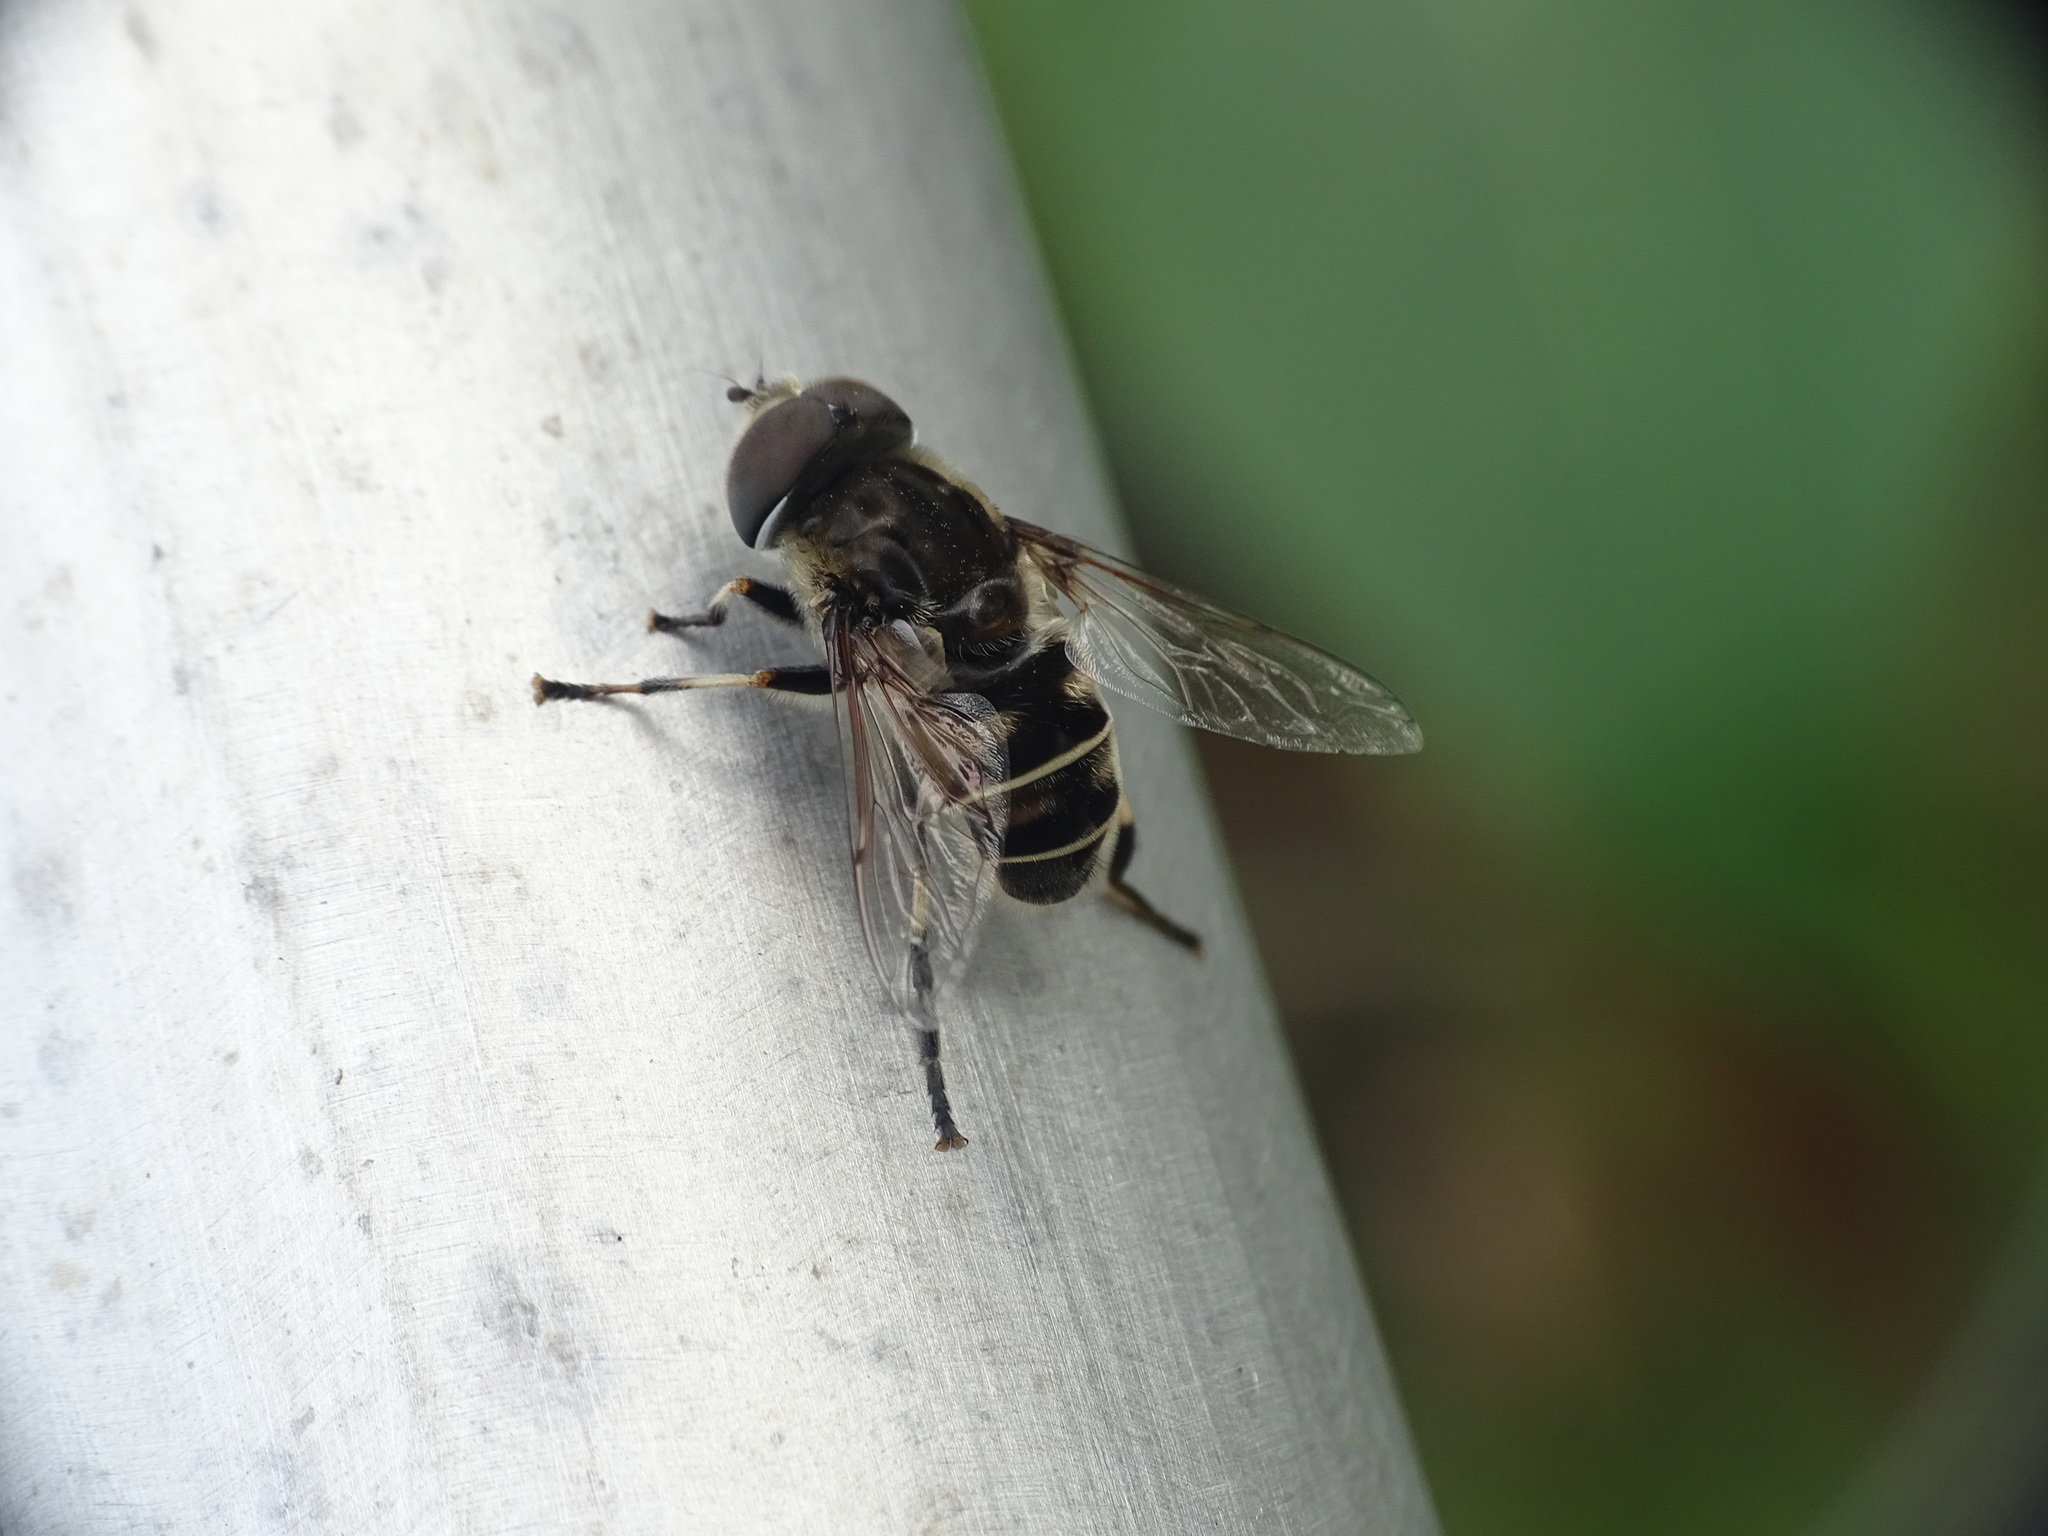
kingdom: Animalia
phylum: Arthropoda
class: Insecta
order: Diptera
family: Syrphidae
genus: Eristalis
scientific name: Eristalis dimidiata
